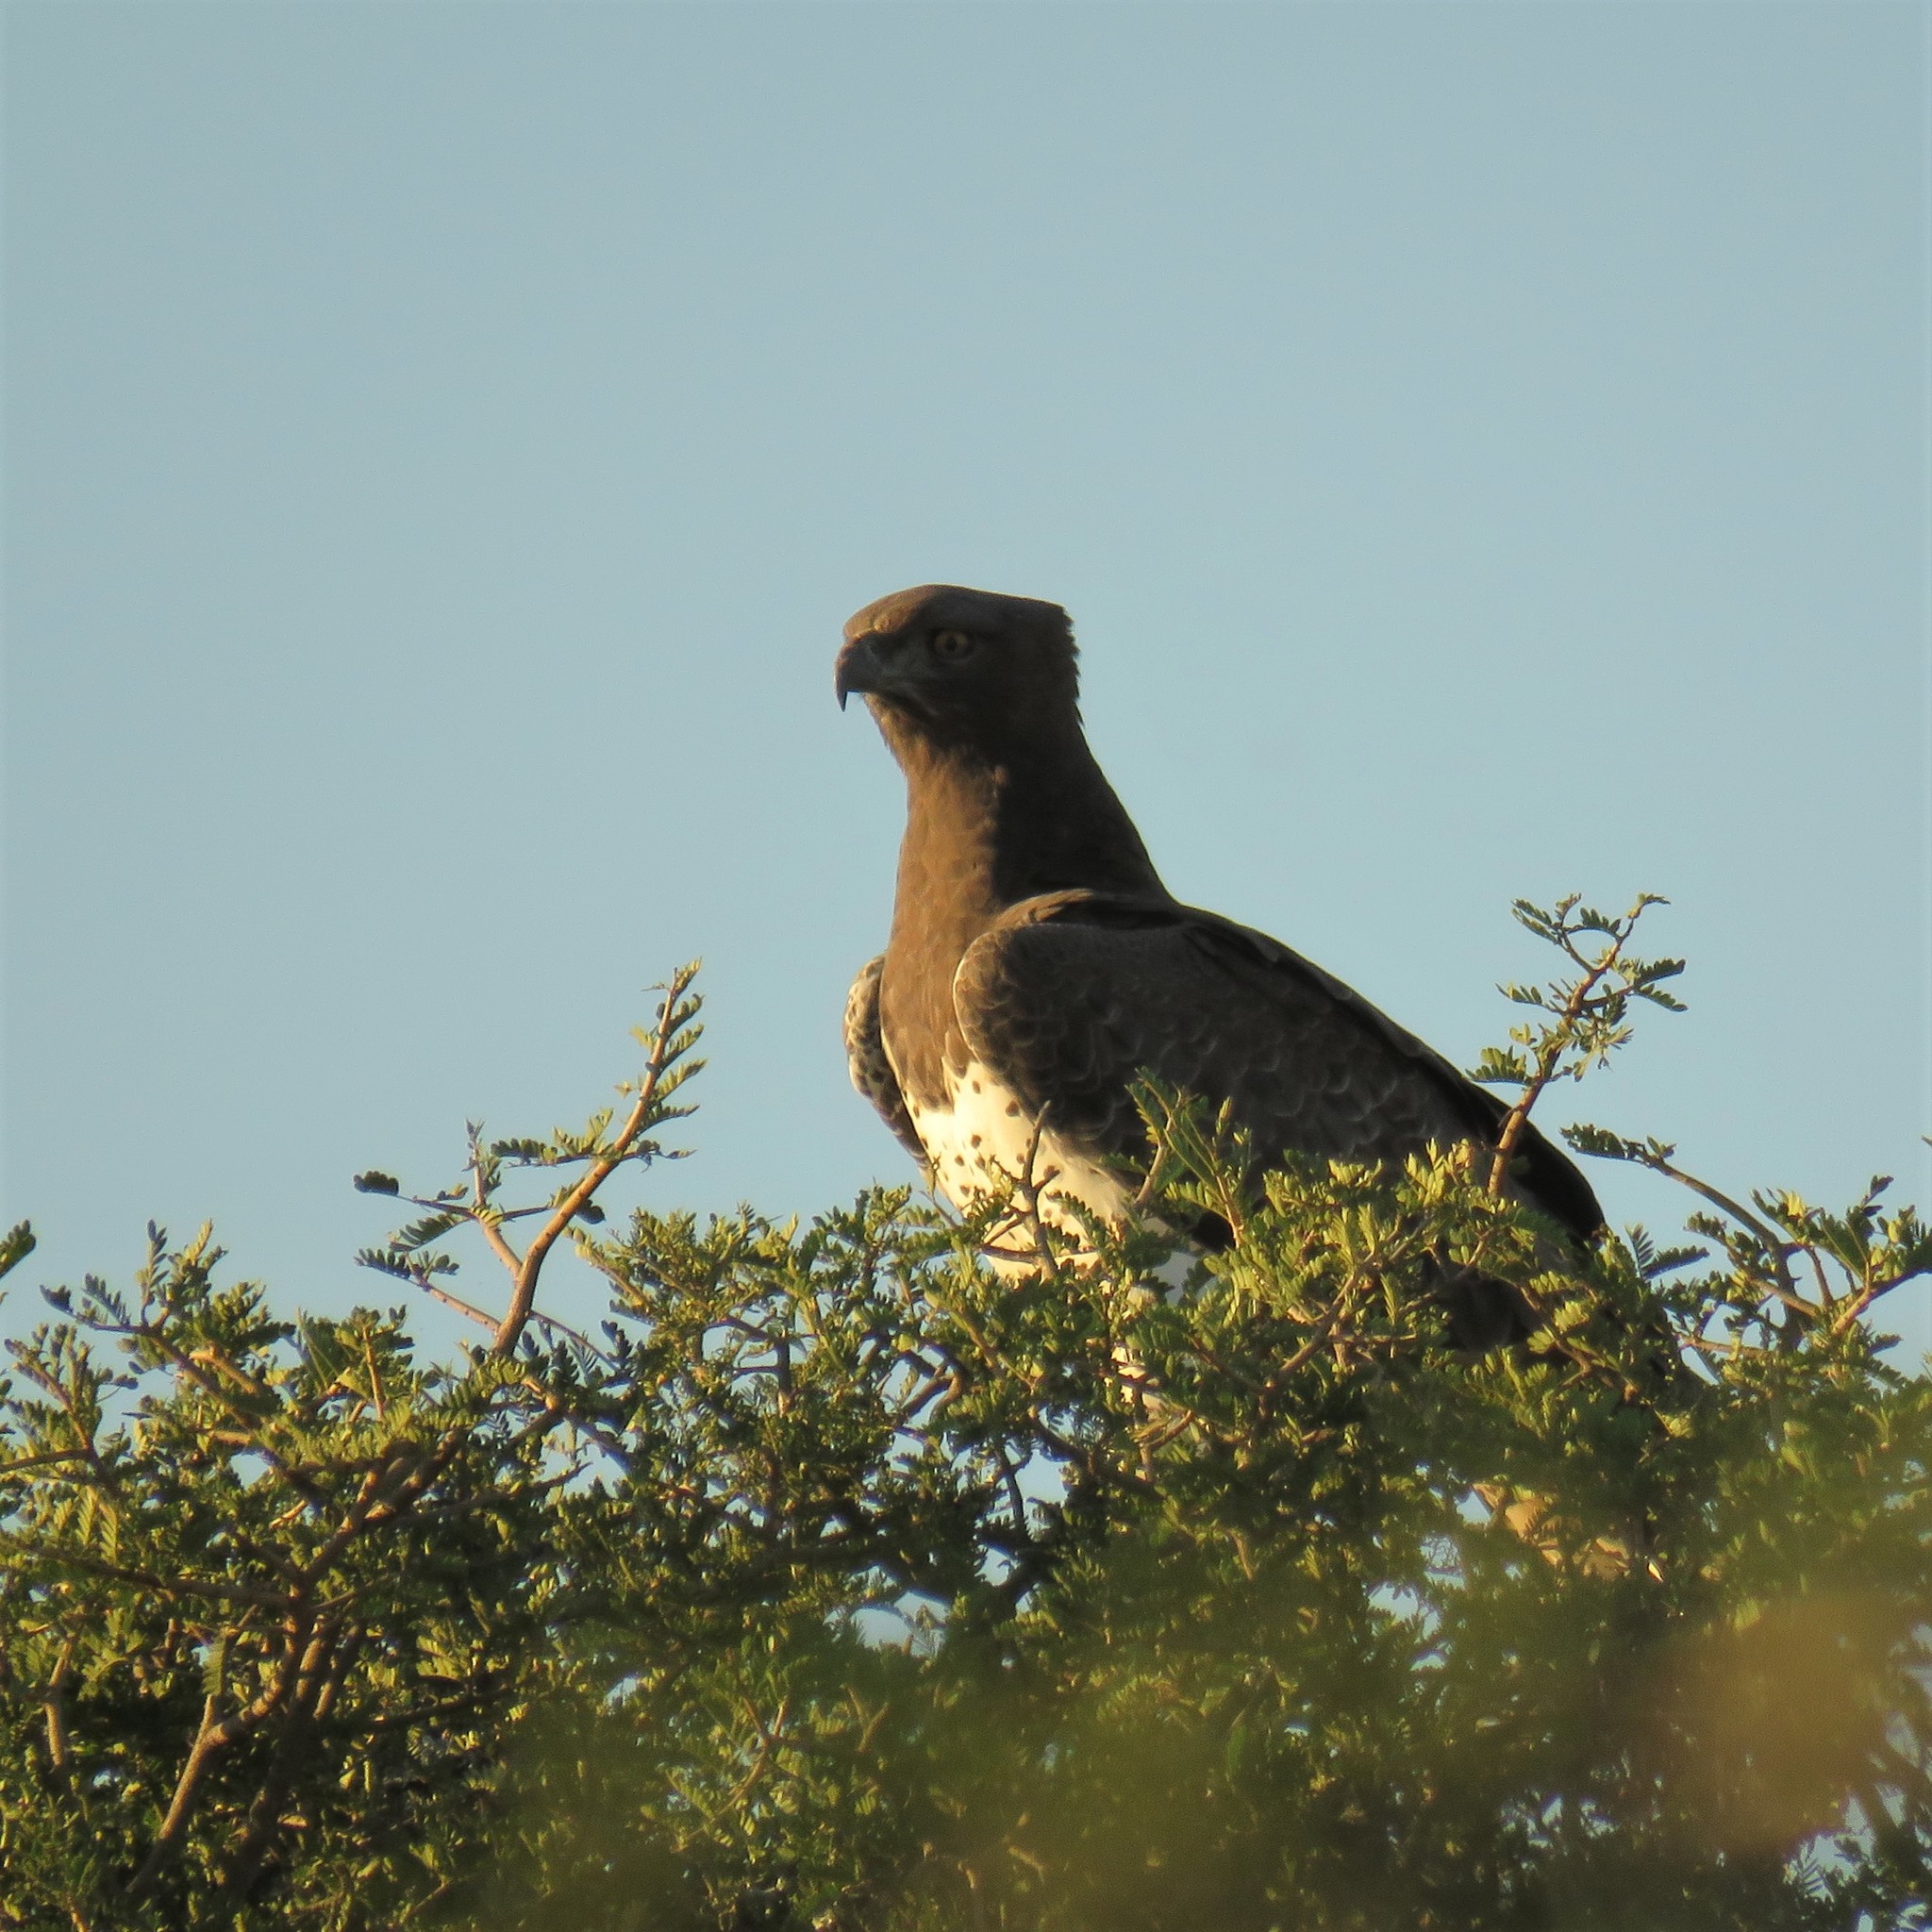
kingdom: Animalia
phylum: Chordata
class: Aves
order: Accipitriformes
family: Accipitridae
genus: Polemaetus
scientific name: Polemaetus bellicosus
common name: Martial eagle
